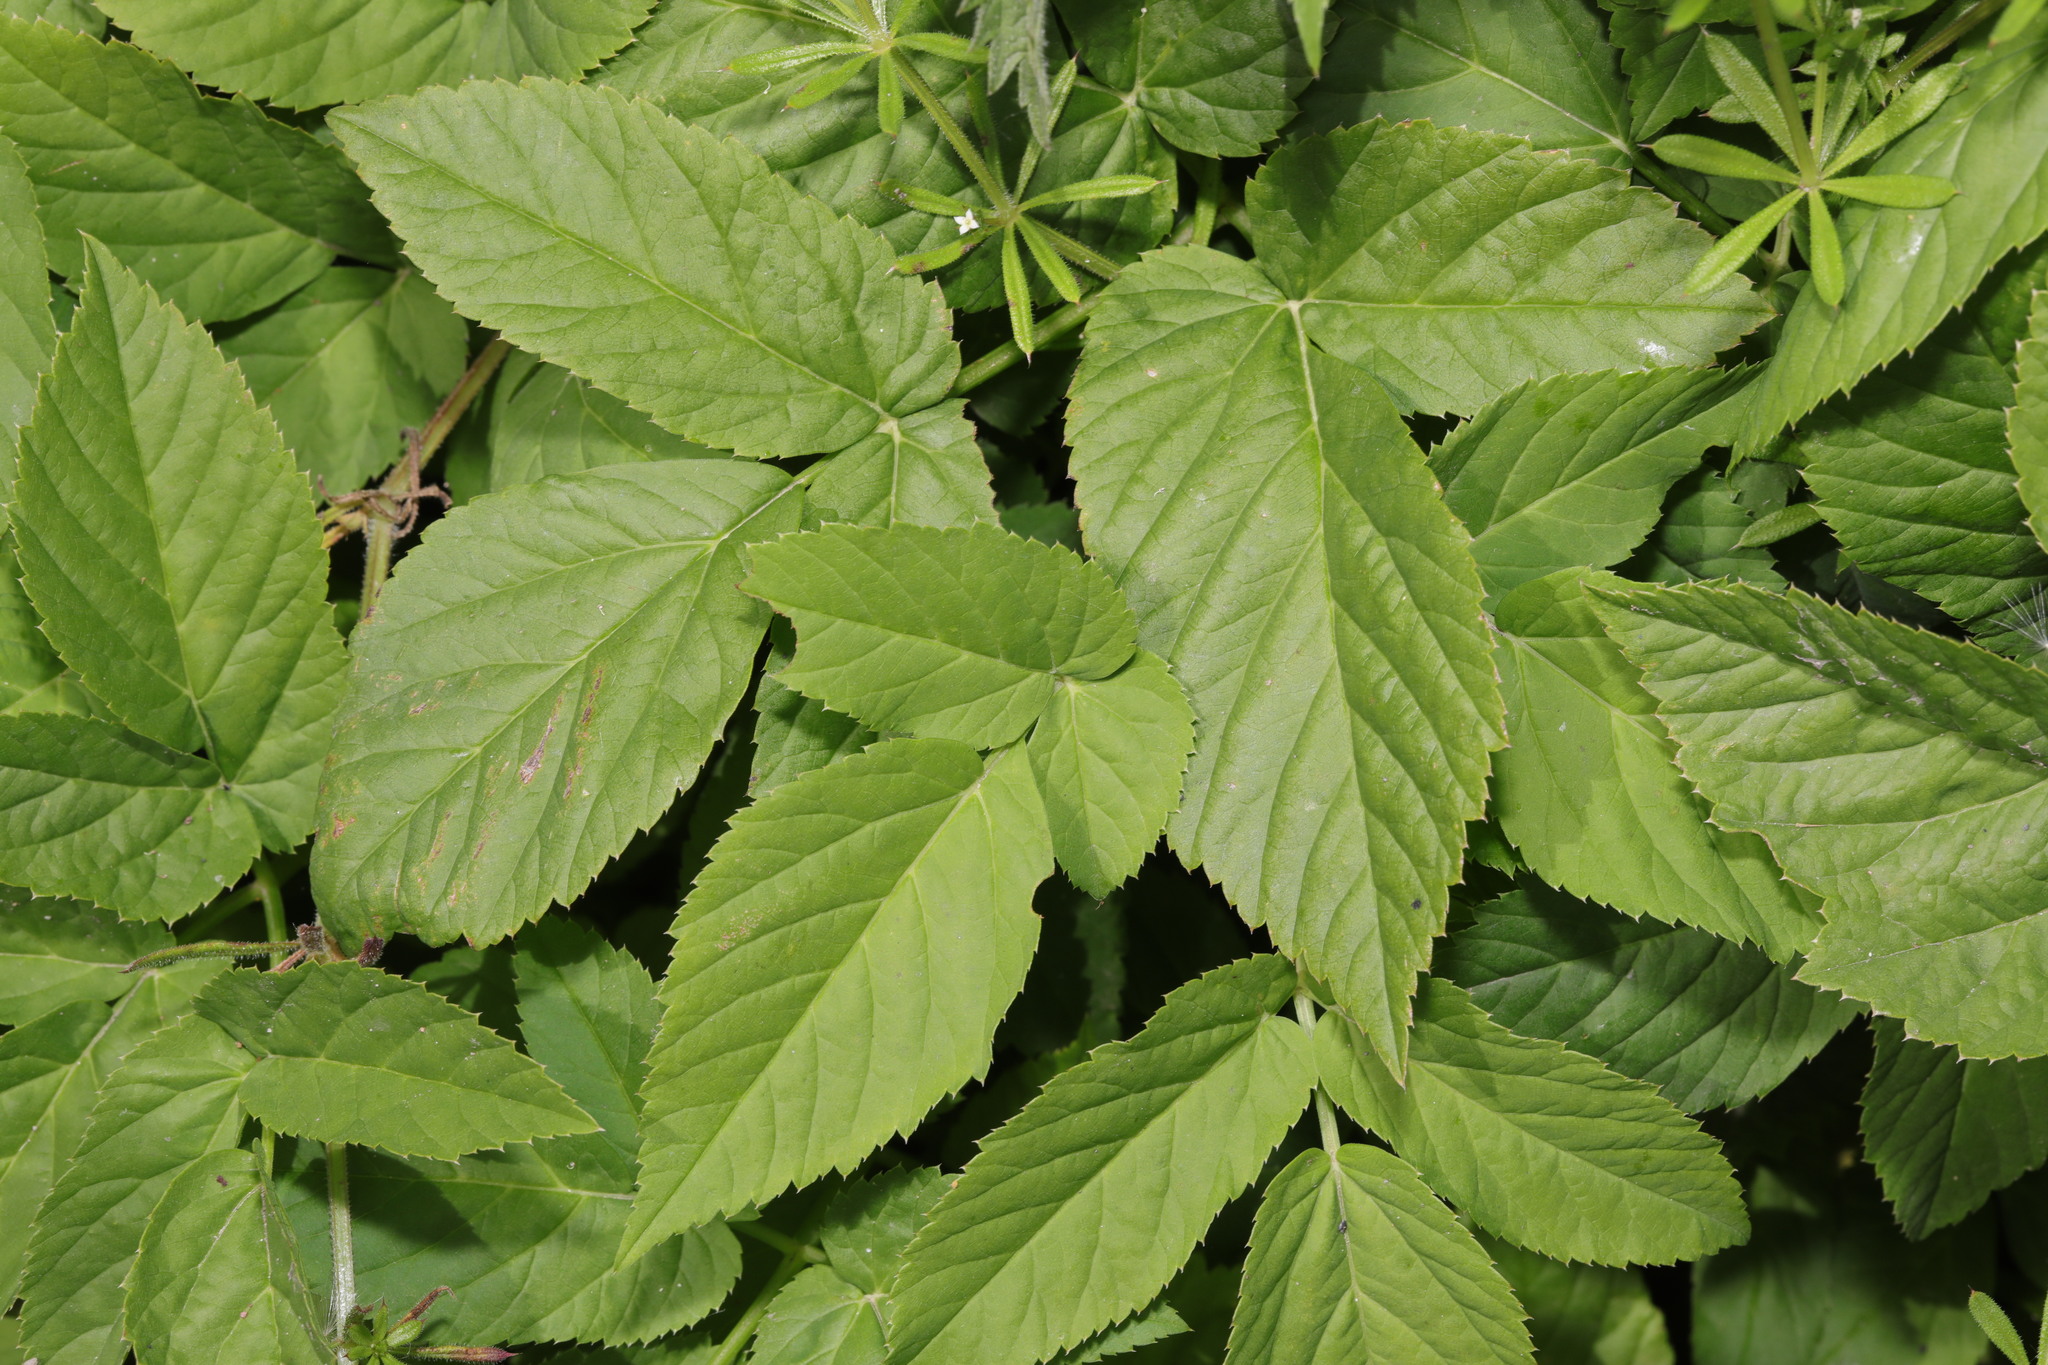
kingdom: Plantae
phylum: Tracheophyta
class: Magnoliopsida
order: Apiales
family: Apiaceae
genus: Aegopodium
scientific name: Aegopodium podagraria
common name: Ground-elder
